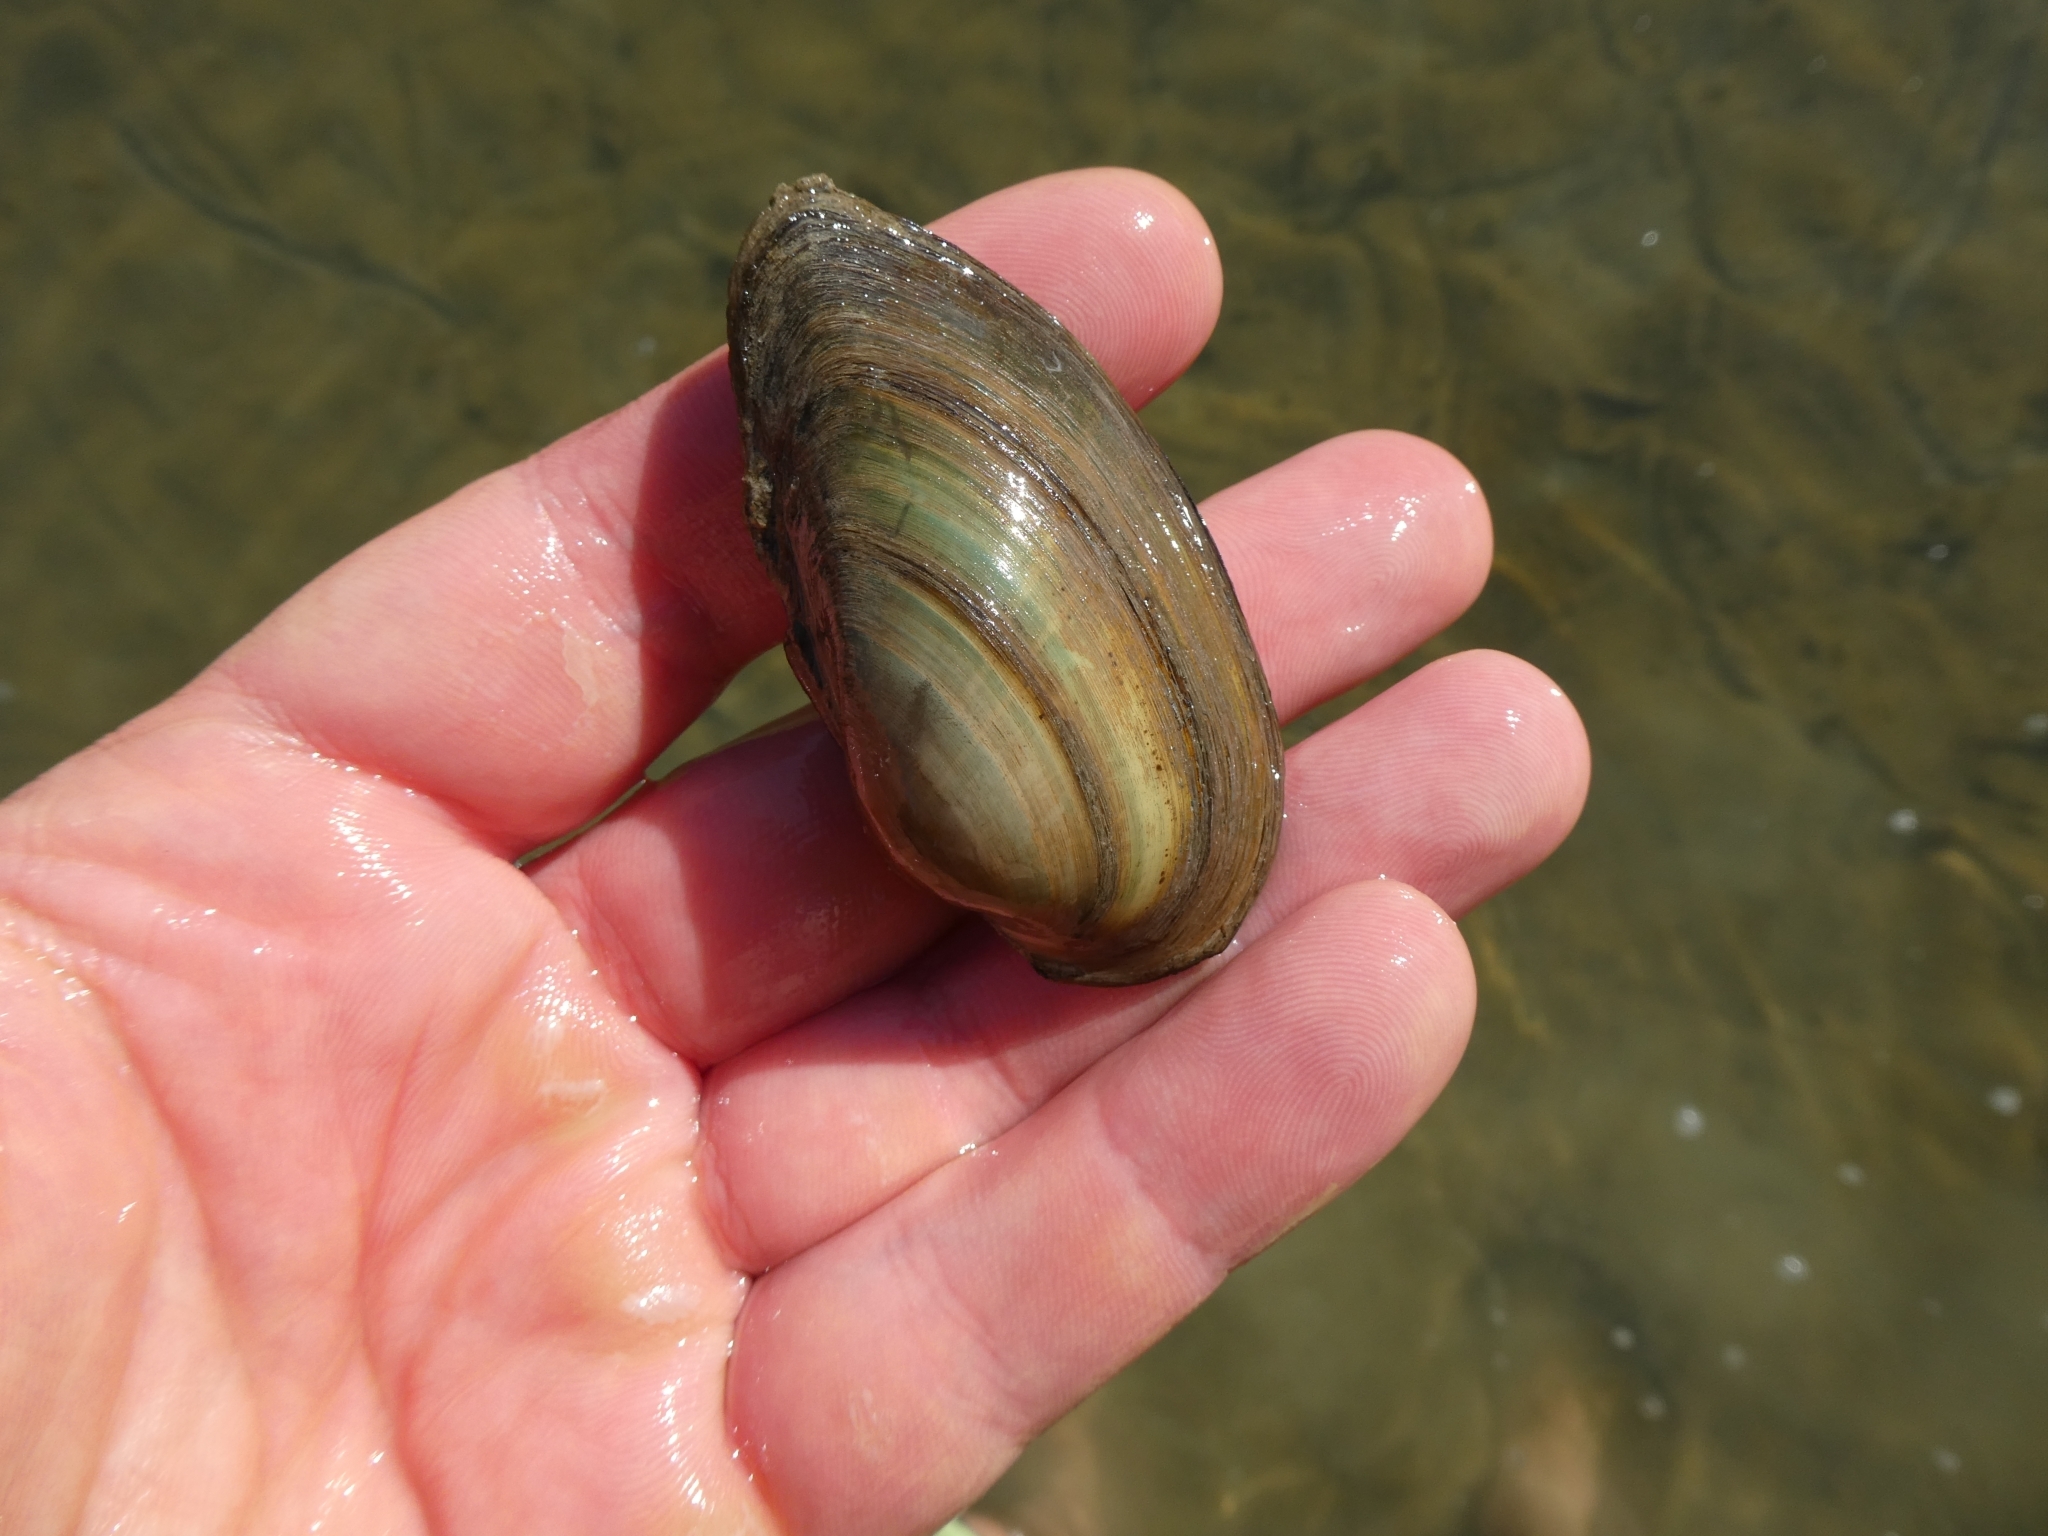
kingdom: Animalia
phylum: Mollusca
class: Bivalvia
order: Unionida
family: Unionidae
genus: Unio
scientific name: Unio tumidus
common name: Swollen river mussel
